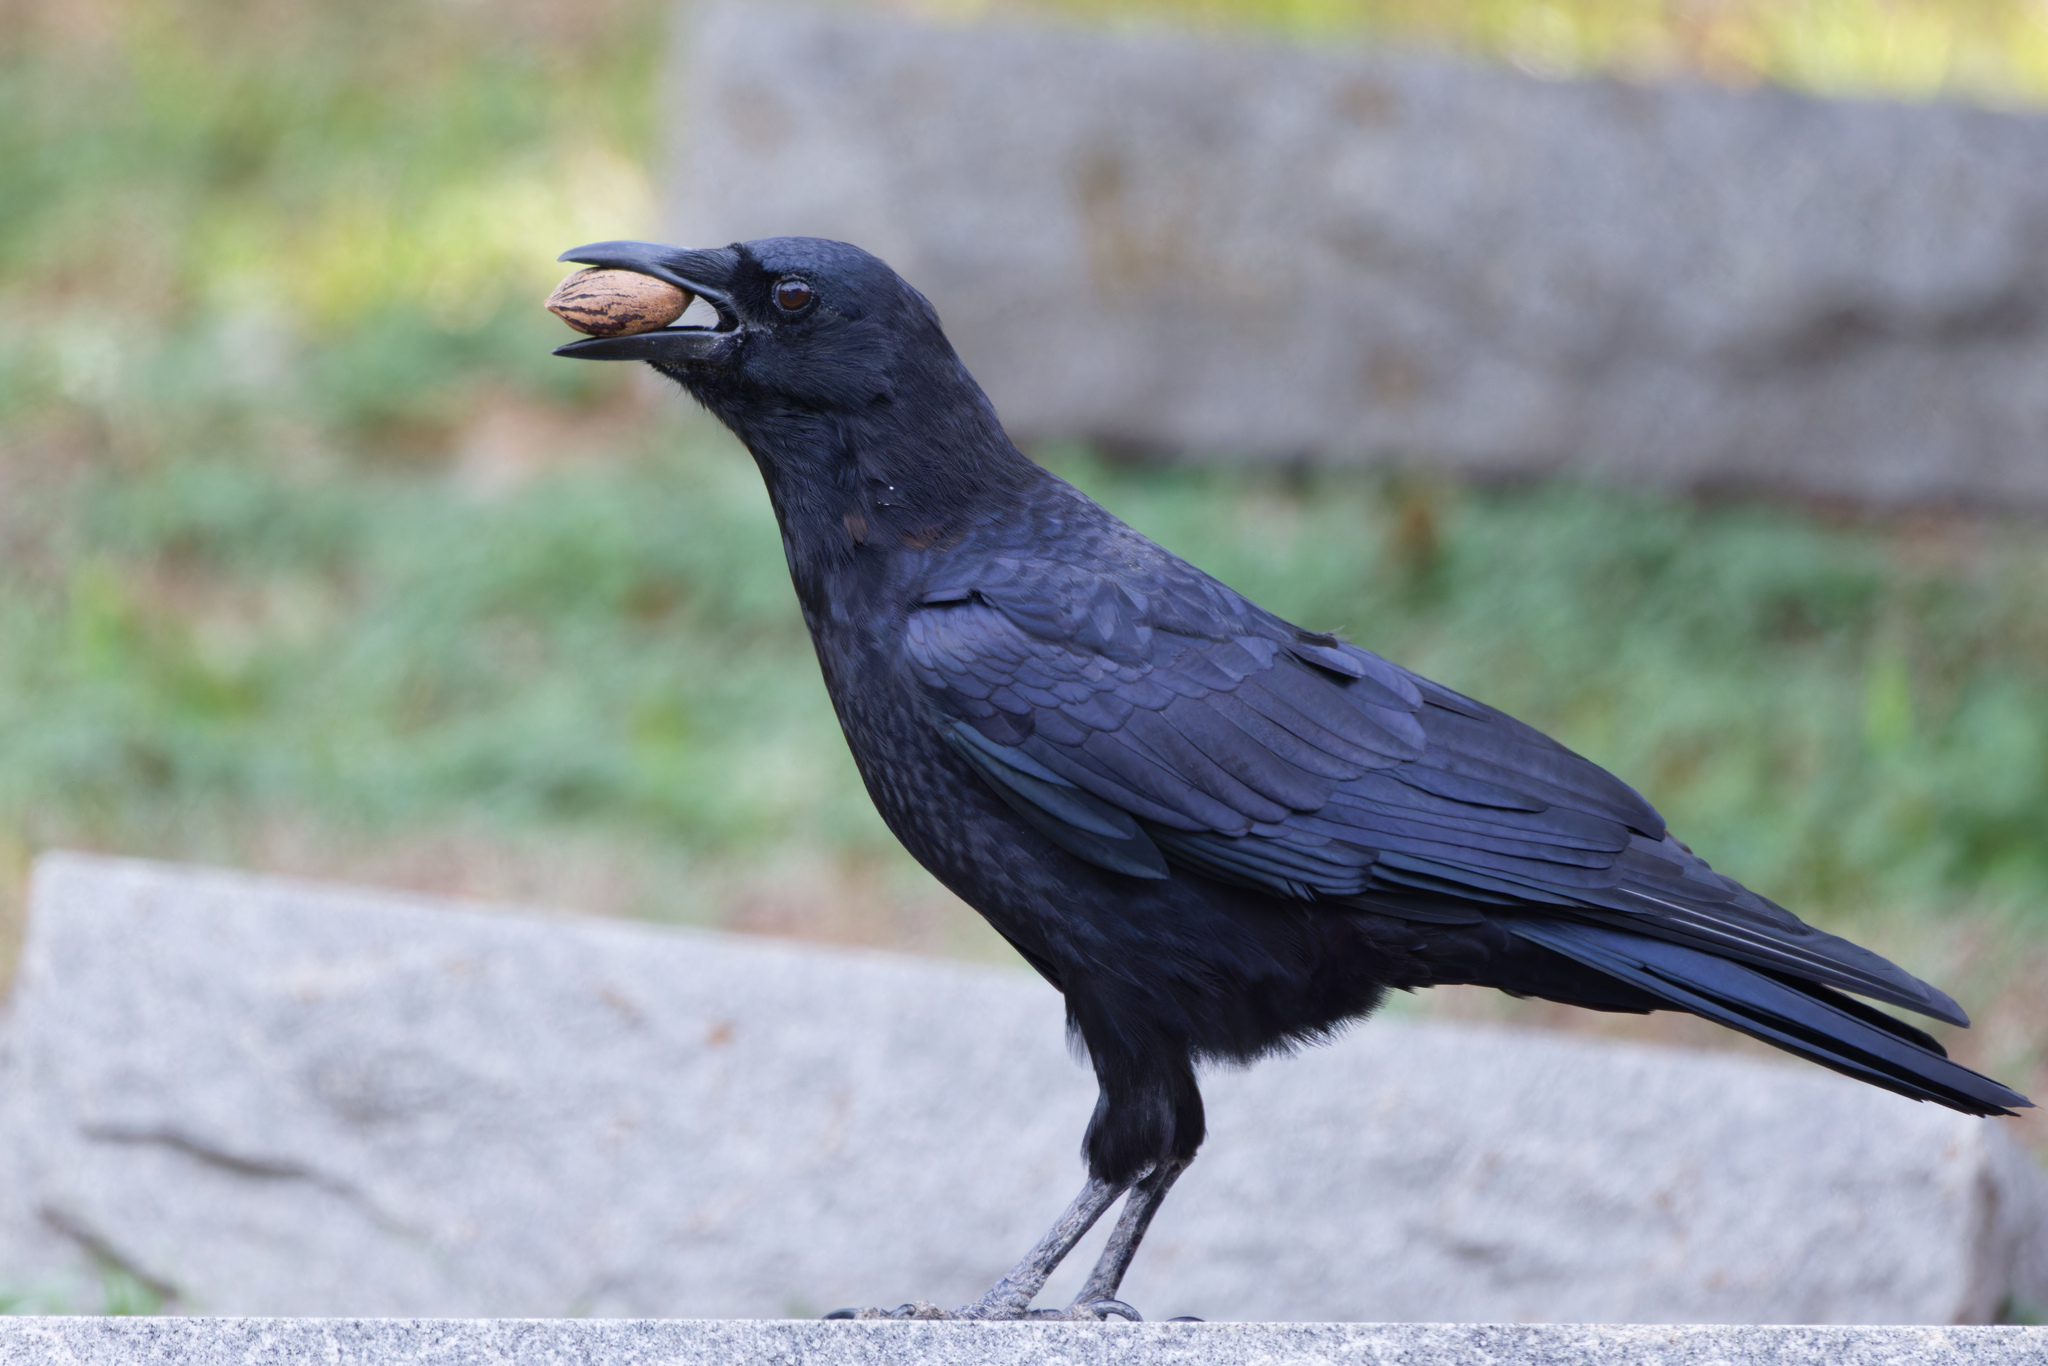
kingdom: Animalia
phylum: Chordata
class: Aves
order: Passeriformes
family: Corvidae
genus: Corvus
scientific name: Corvus brachyrhynchos
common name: American crow
